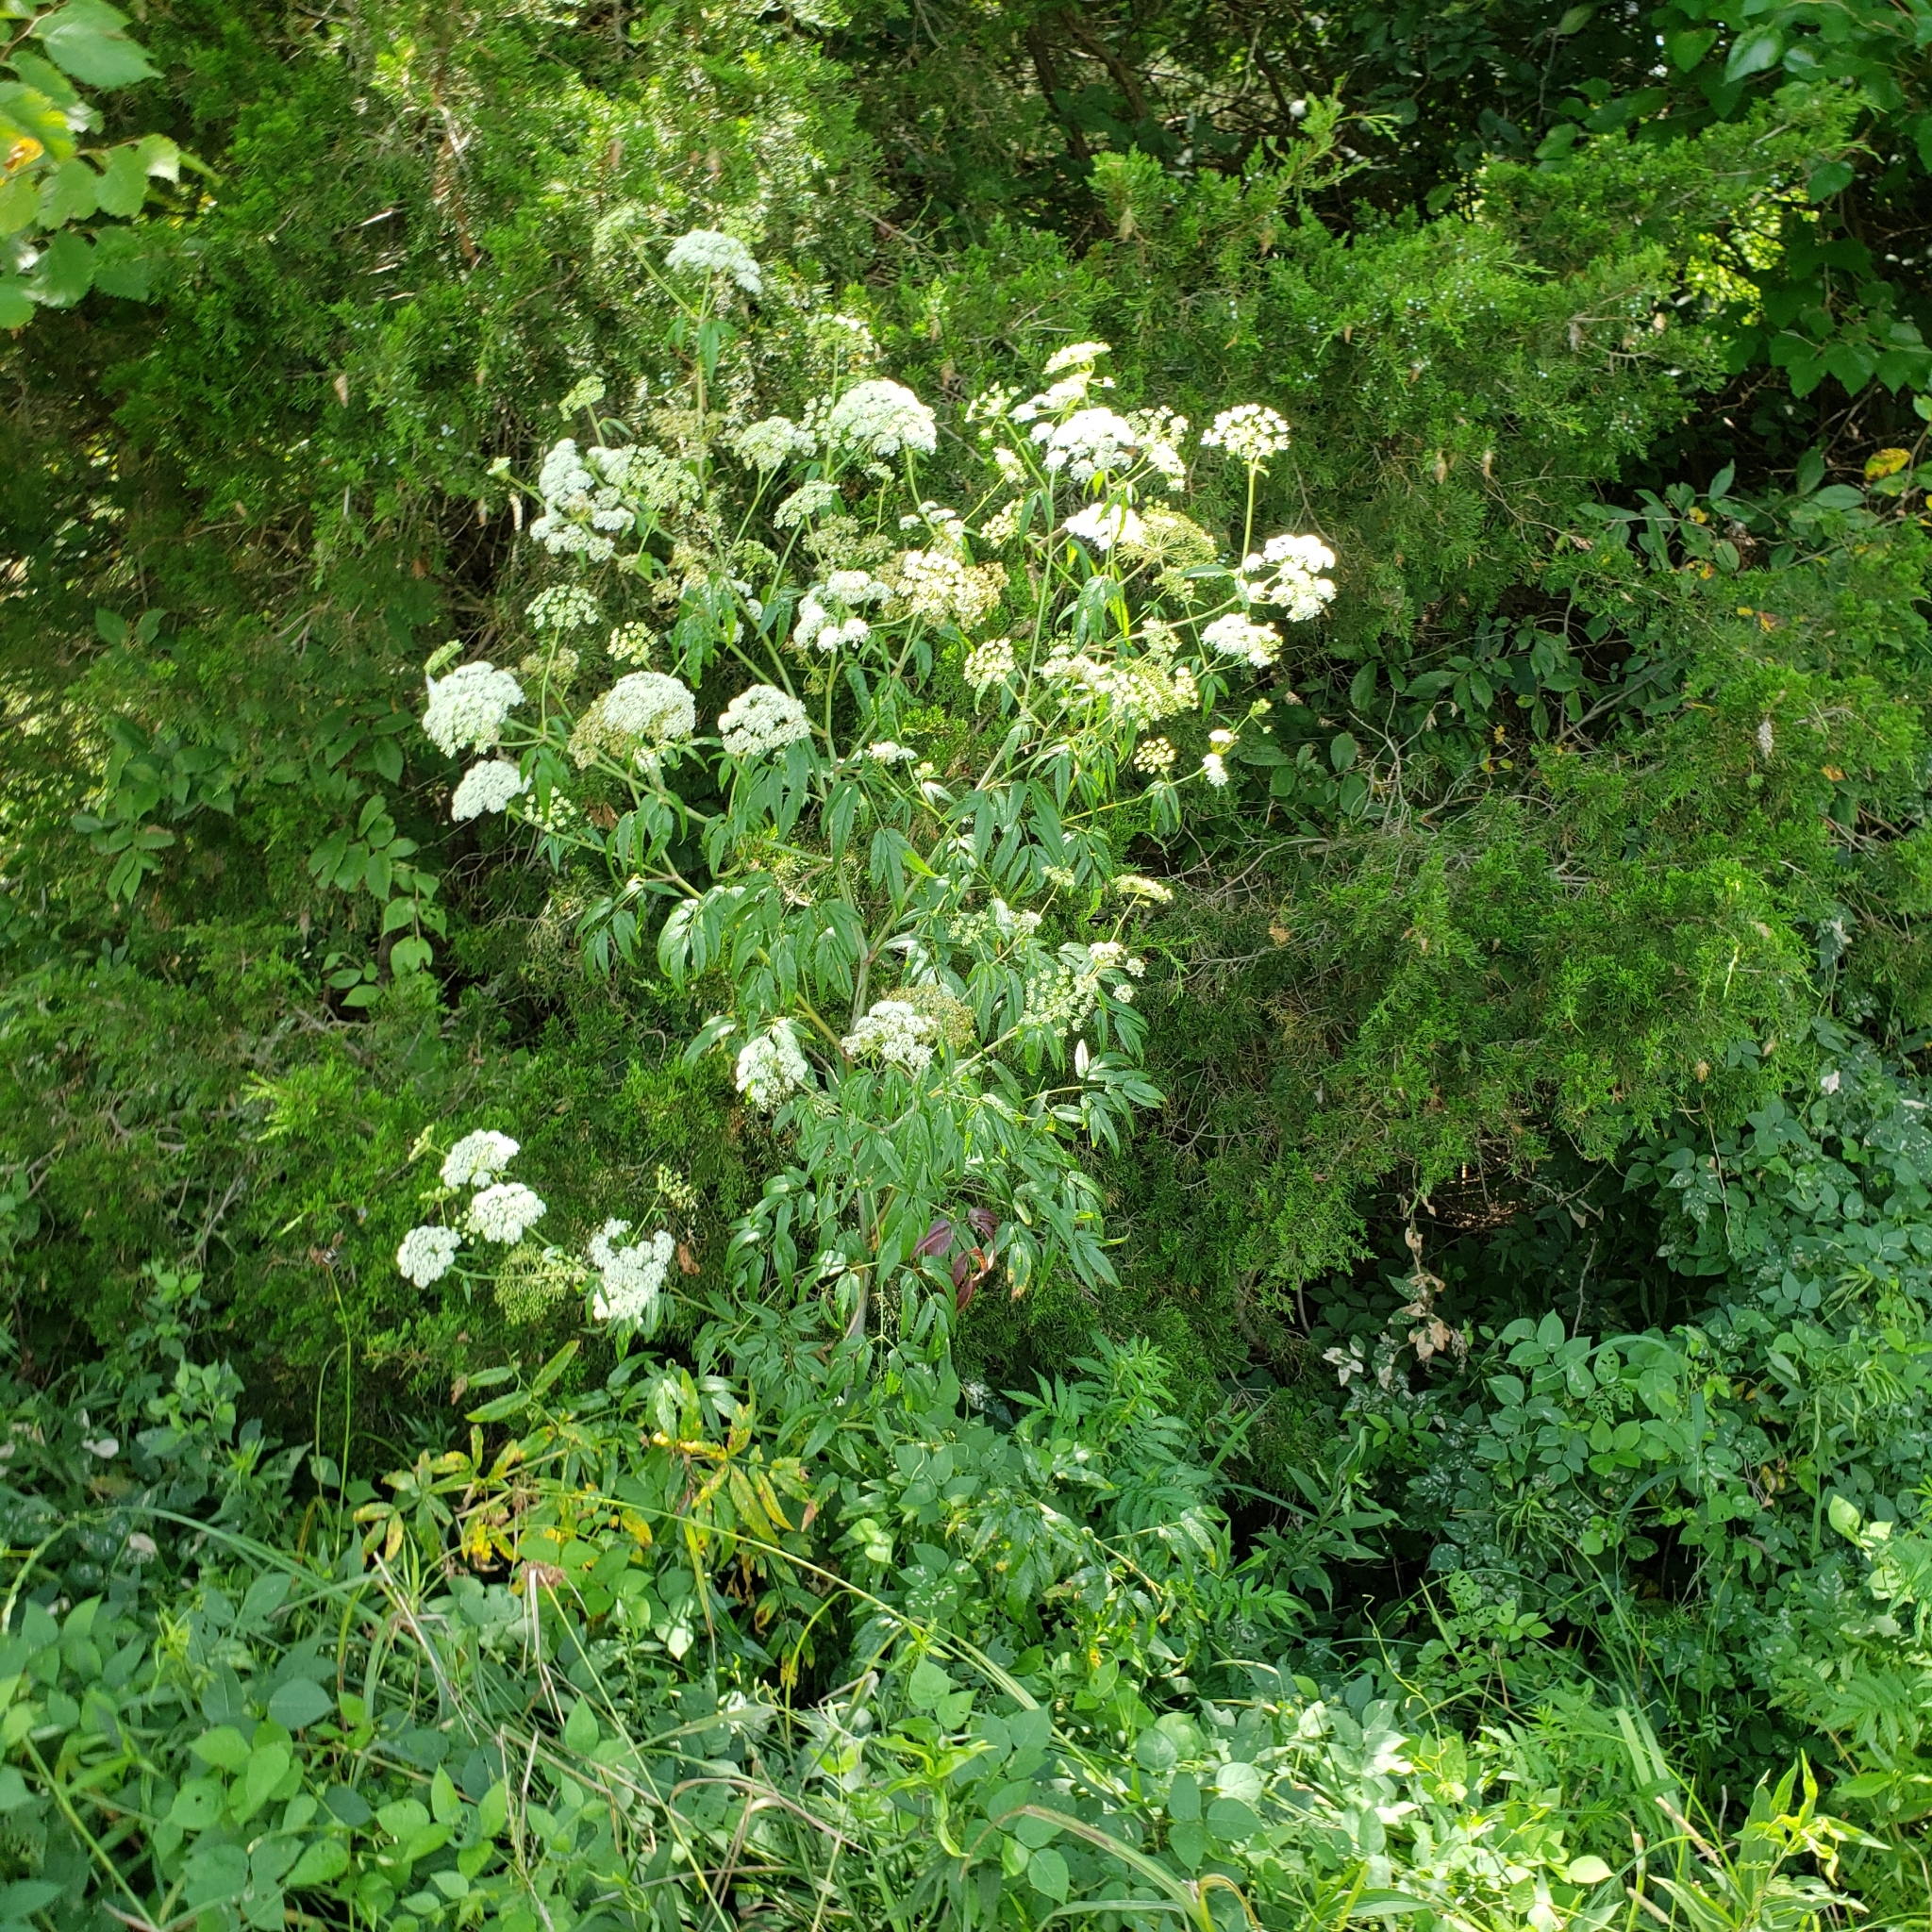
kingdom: Plantae
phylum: Tracheophyta
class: Magnoliopsida
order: Apiales
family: Apiaceae
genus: Cicuta
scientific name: Cicuta maculata
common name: Spotted cowbane
